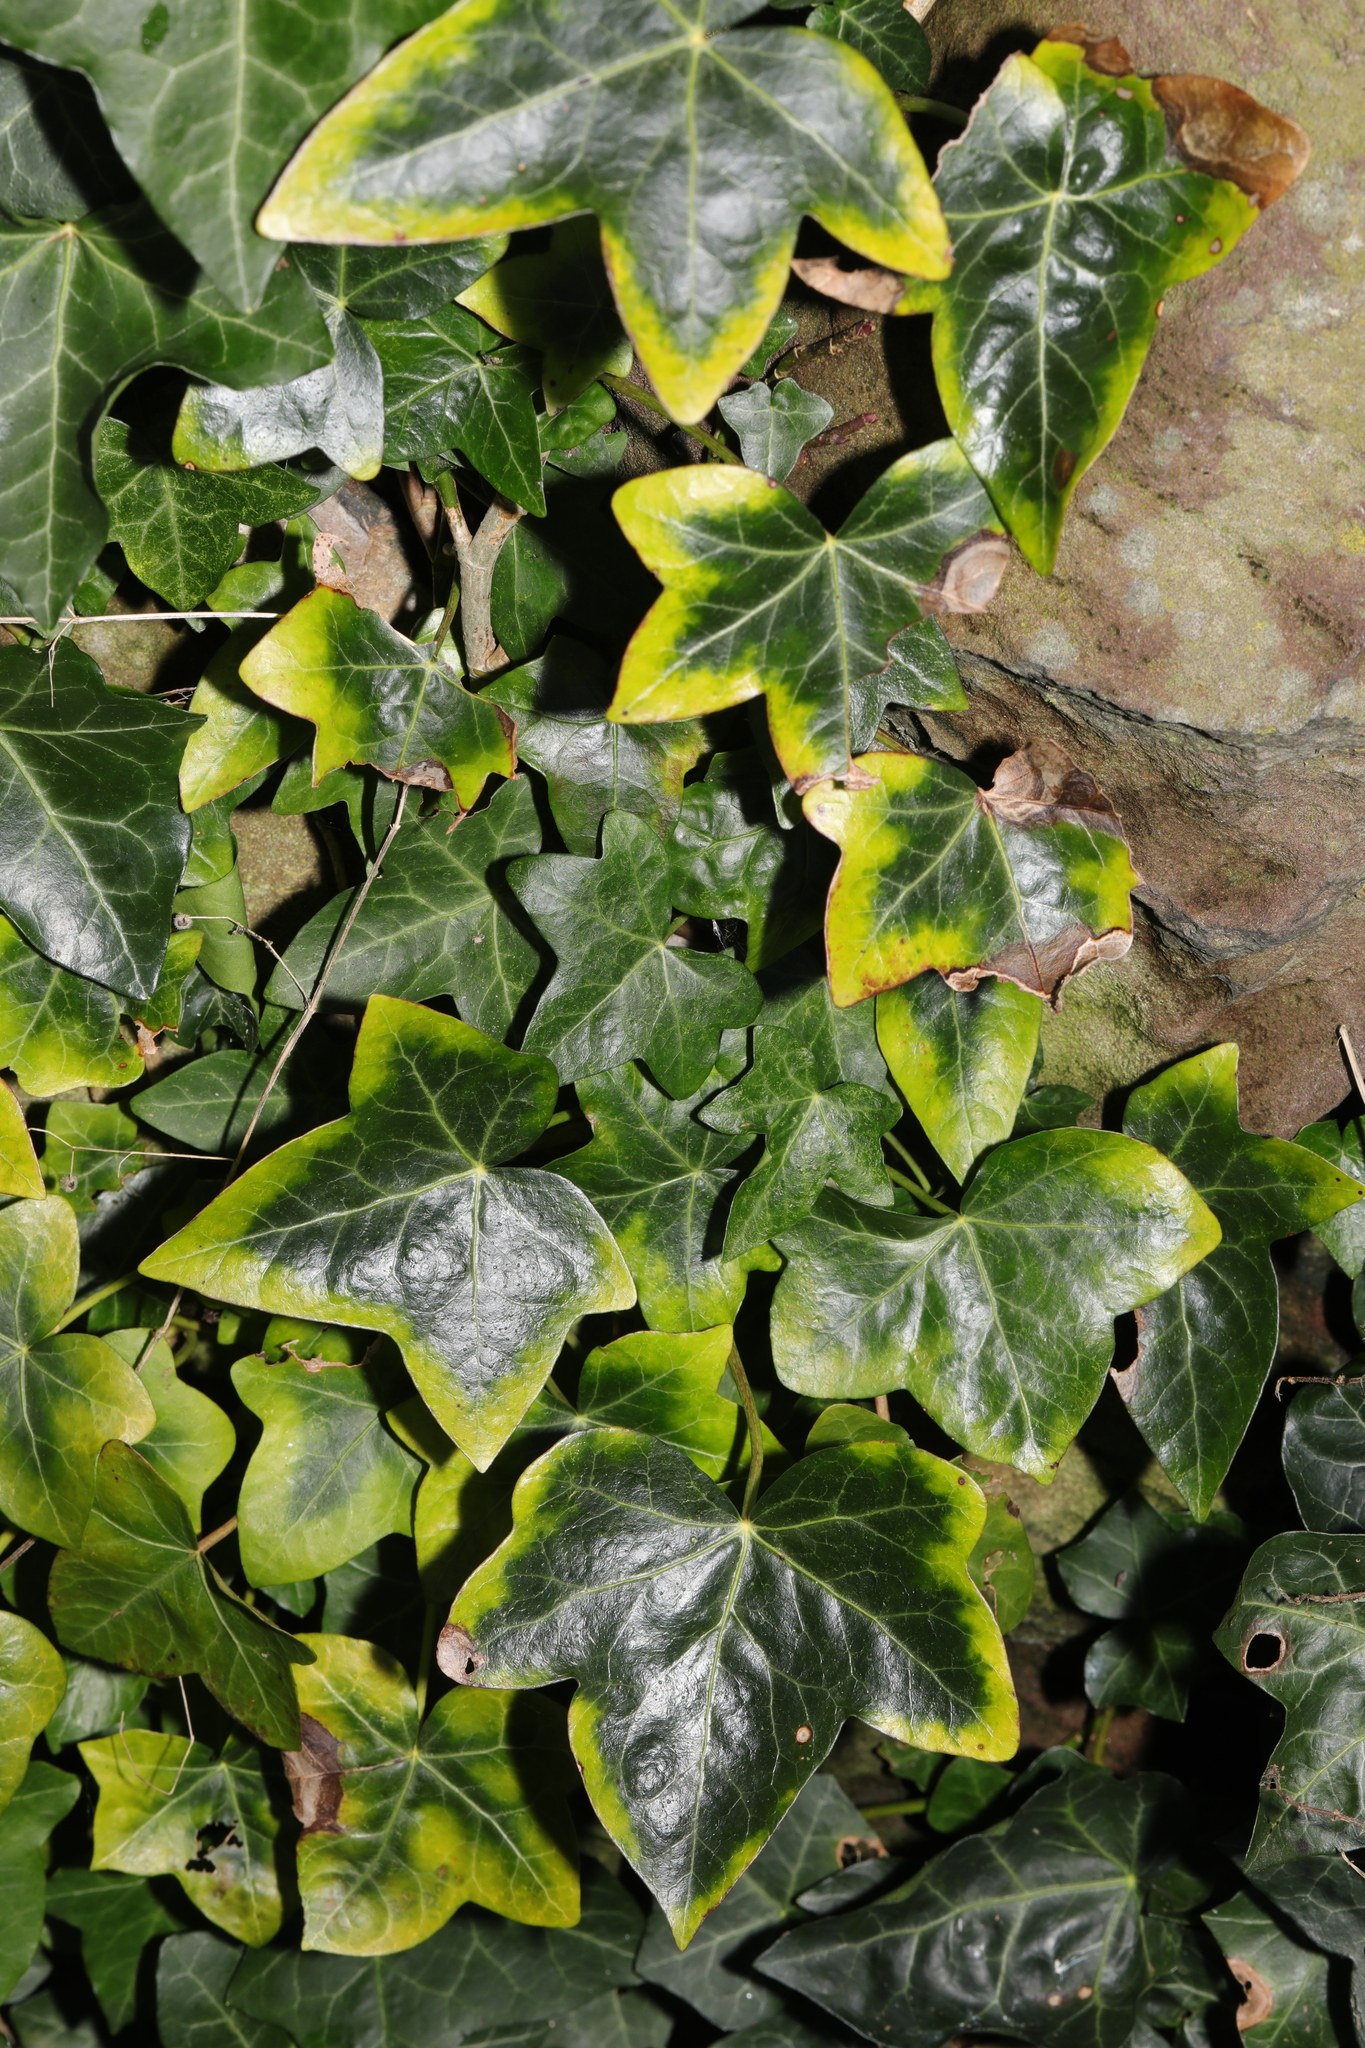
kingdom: Plantae
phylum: Tracheophyta
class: Magnoliopsida
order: Apiales
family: Araliaceae
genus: Hedera
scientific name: Hedera helix
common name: Ivy
